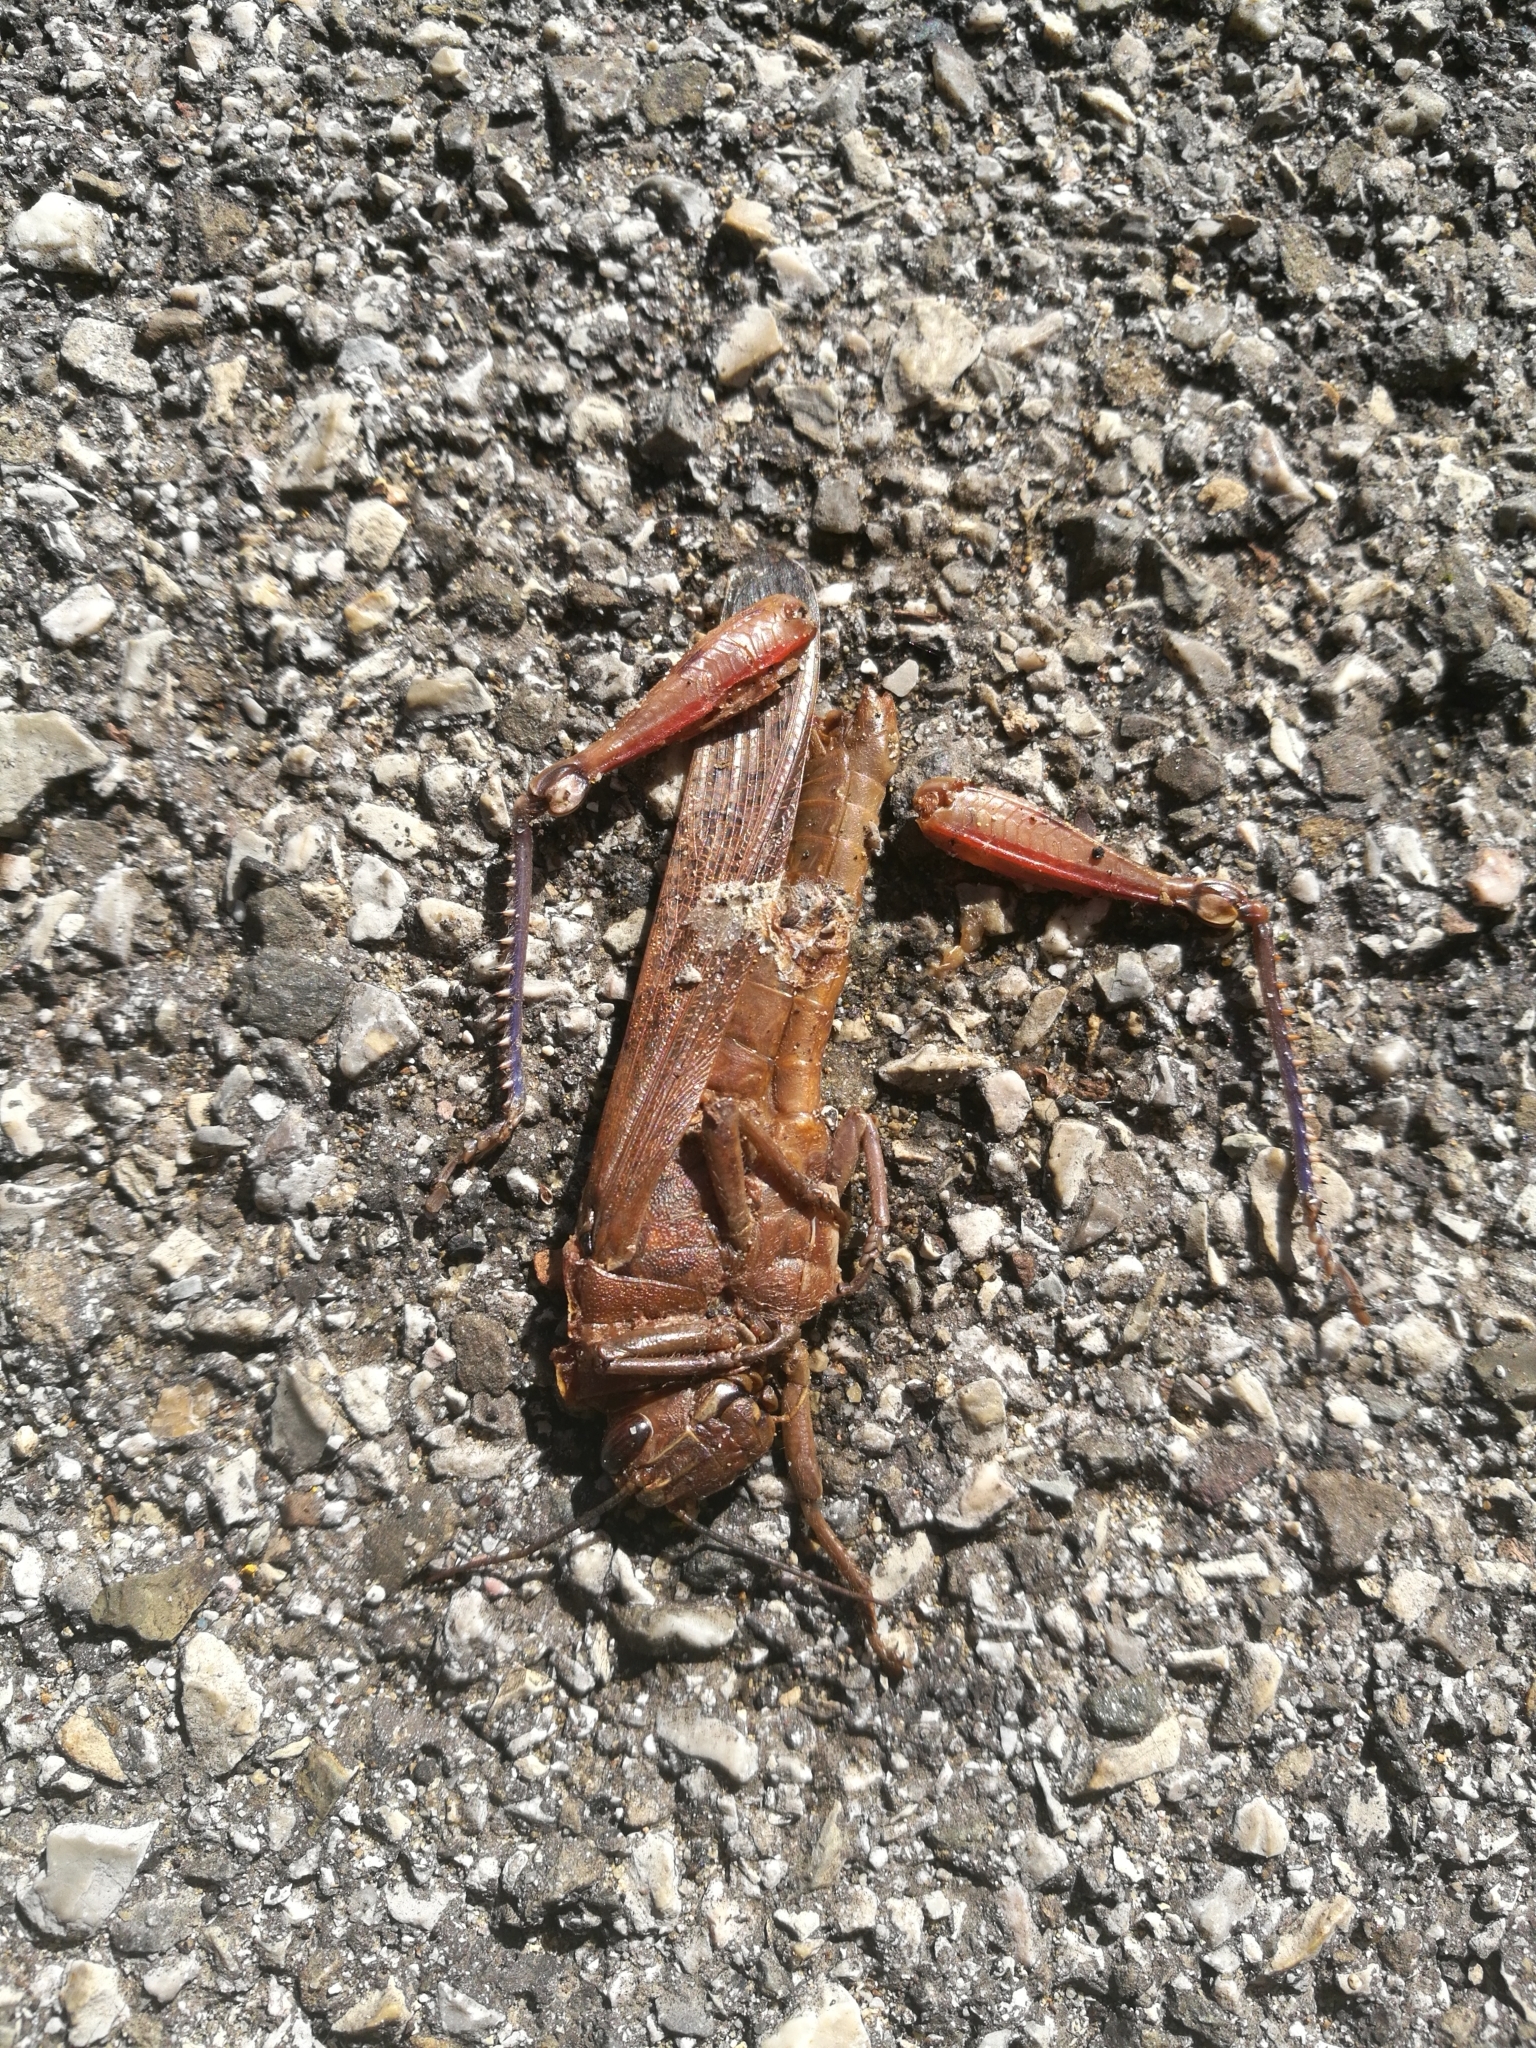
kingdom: Animalia
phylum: Arthropoda
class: Insecta
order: Orthoptera
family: Acrididae
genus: Anacridium
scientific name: Anacridium aegyptium
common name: Egyptian grasshopper
